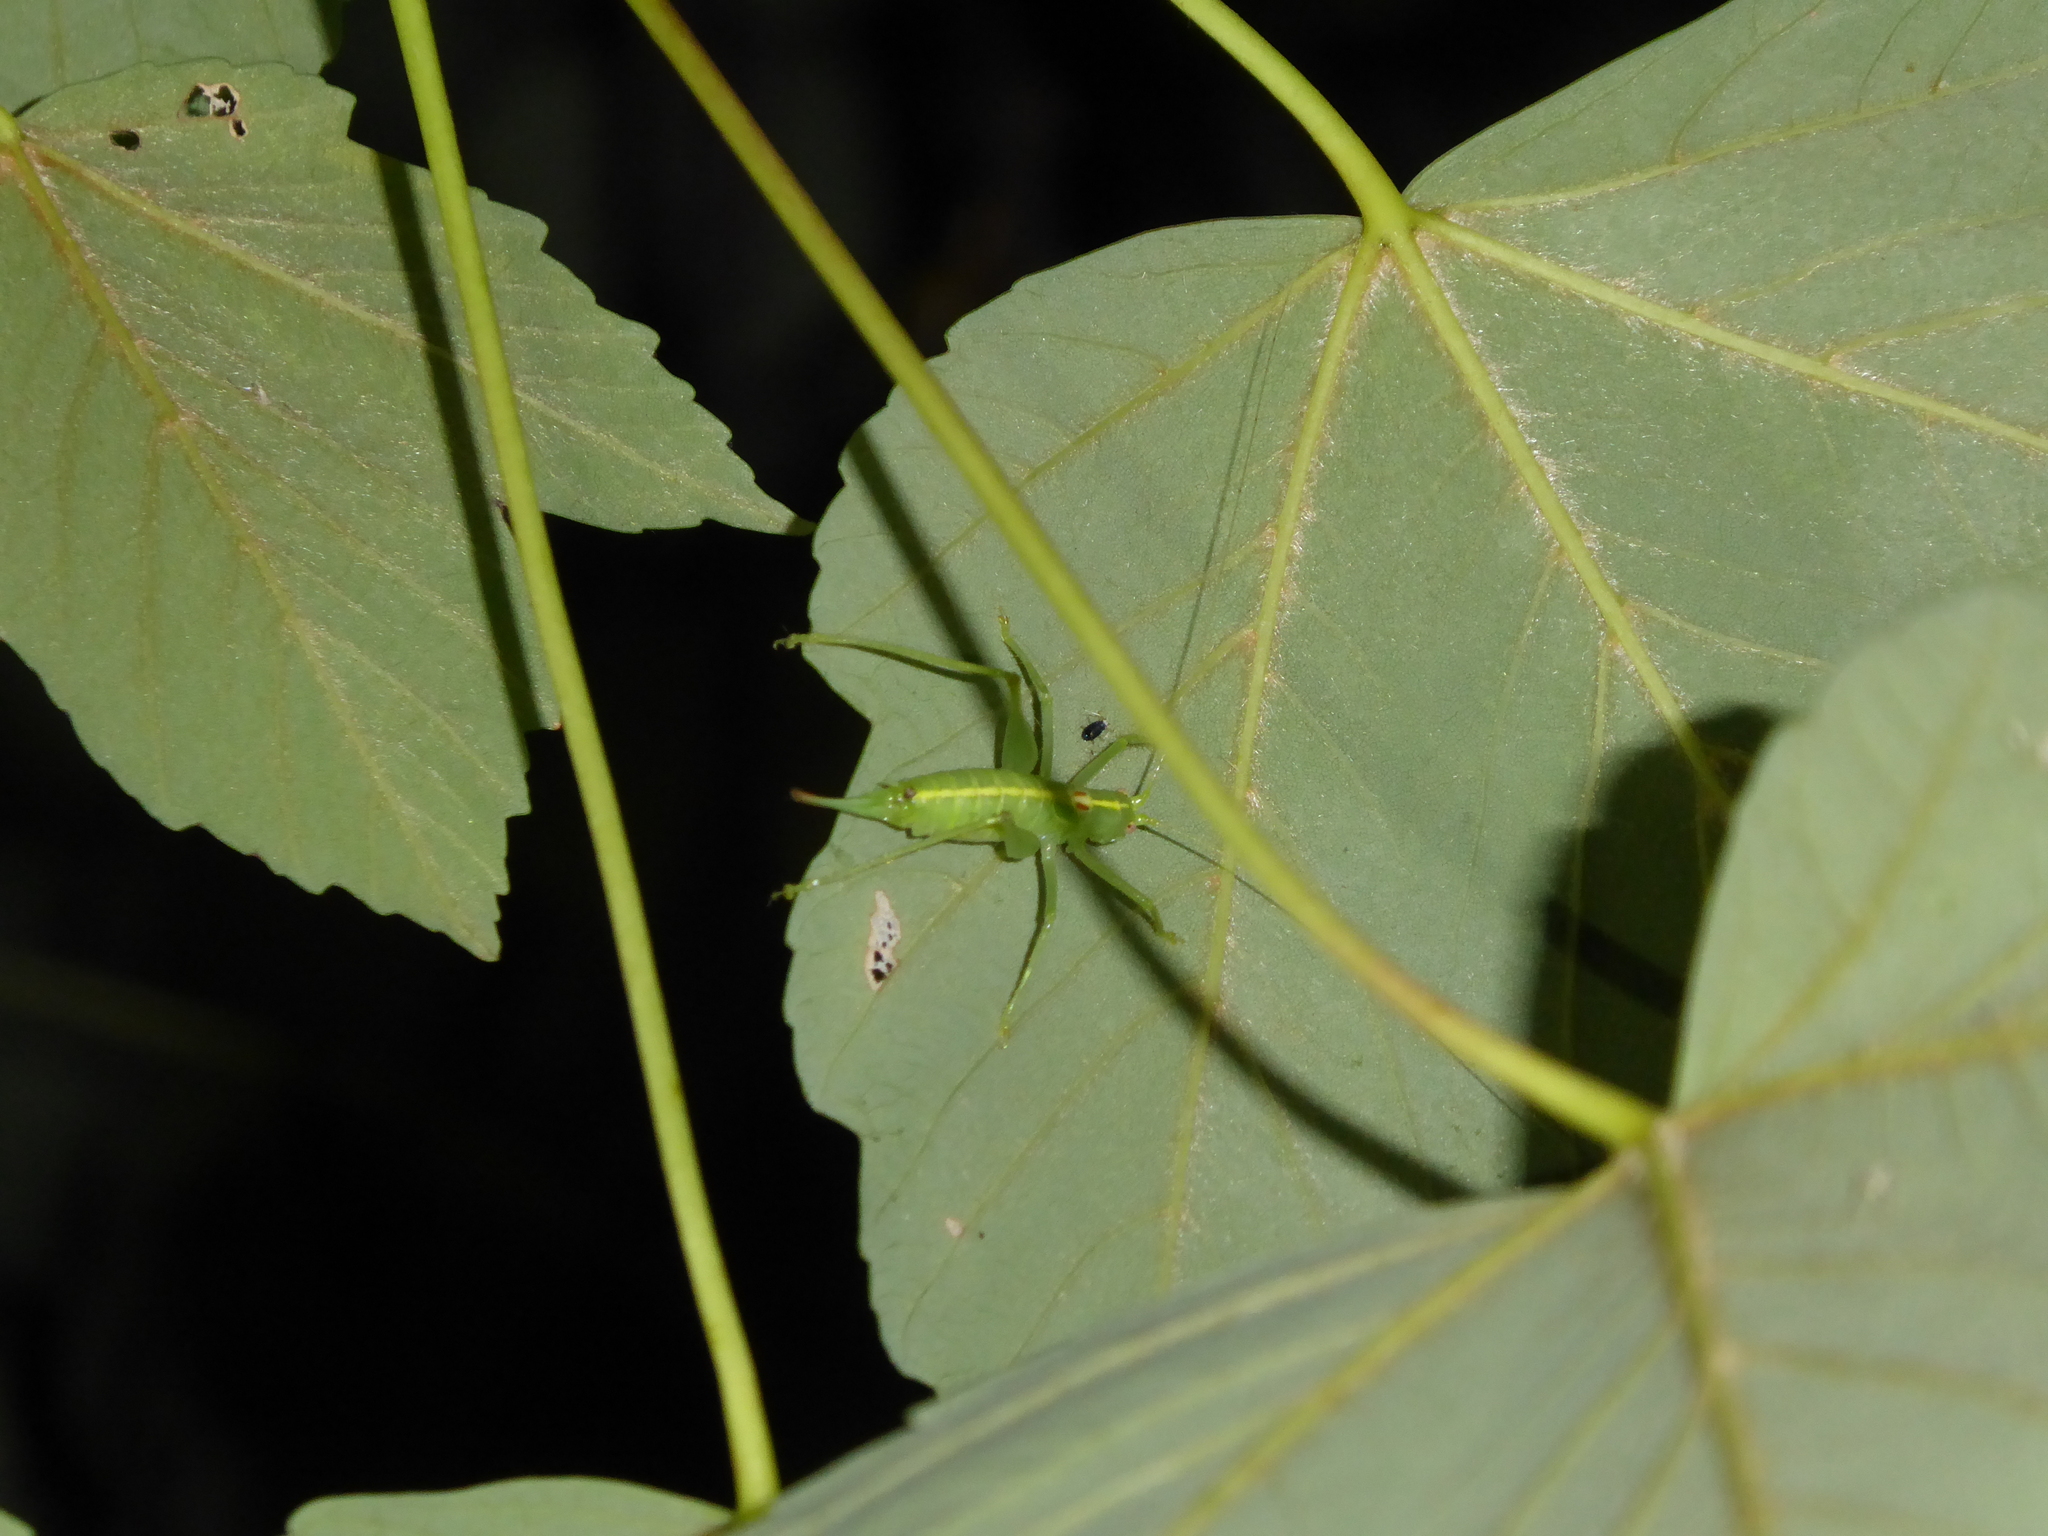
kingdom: Animalia
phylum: Arthropoda
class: Insecta
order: Orthoptera
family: Tettigoniidae
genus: Meconema
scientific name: Meconema meridionale
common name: Southern oak bush-cricket
